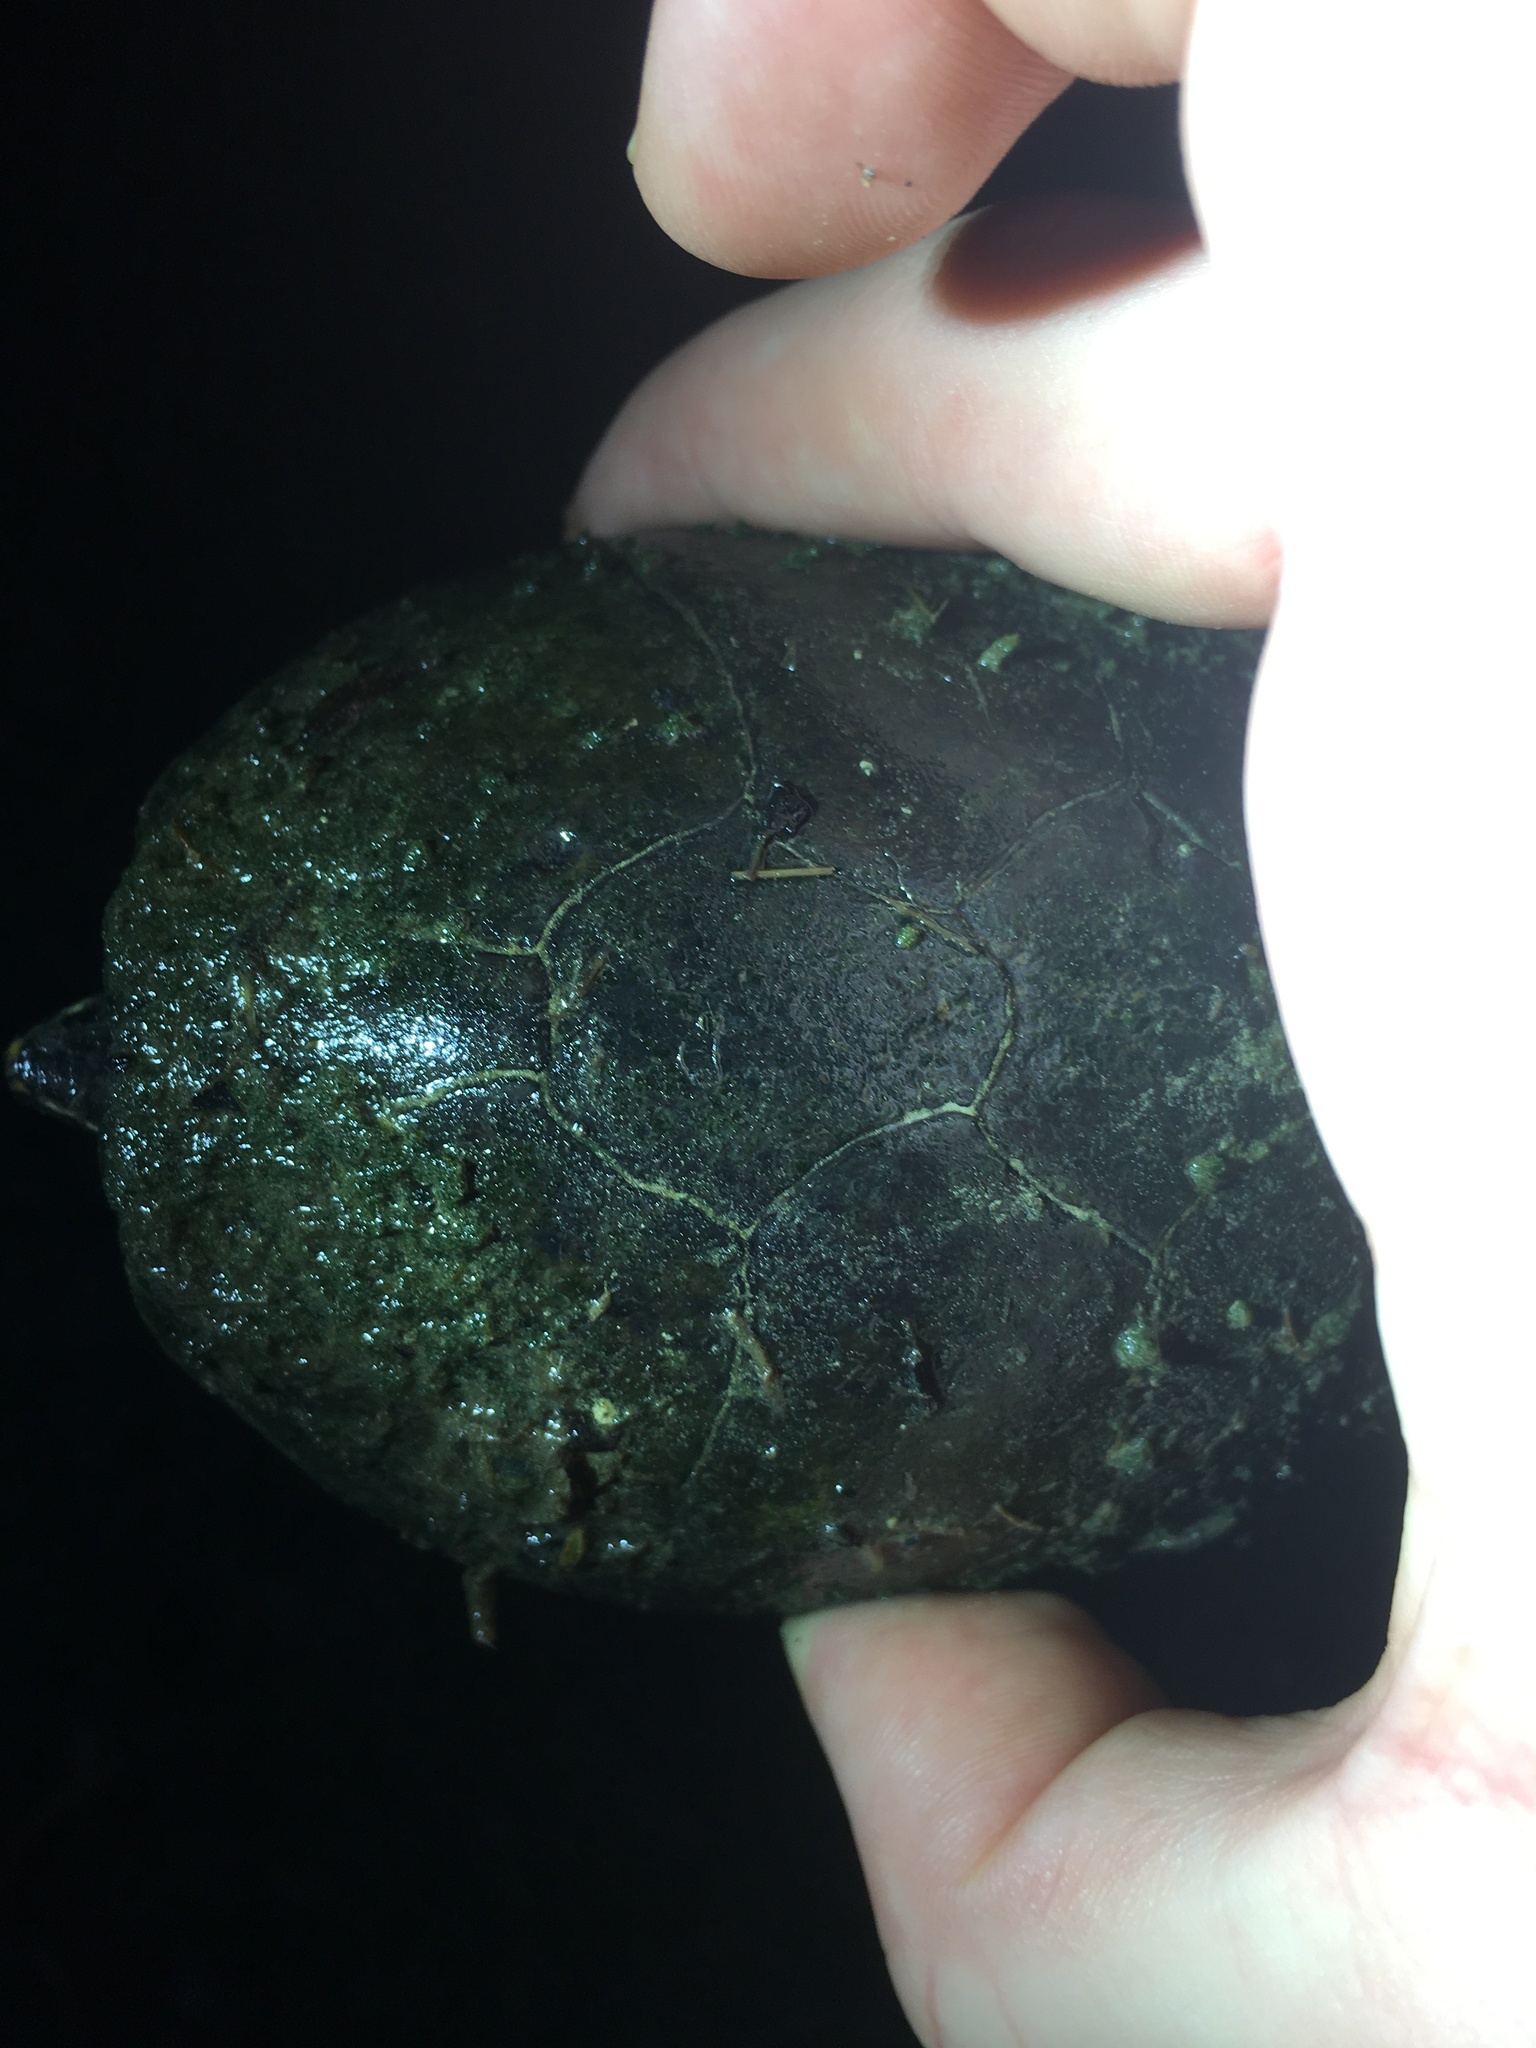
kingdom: Animalia
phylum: Chordata
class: Testudines
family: Kinosternidae
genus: Sternotherus
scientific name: Sternotherus odoratus
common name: Common musk turtle
